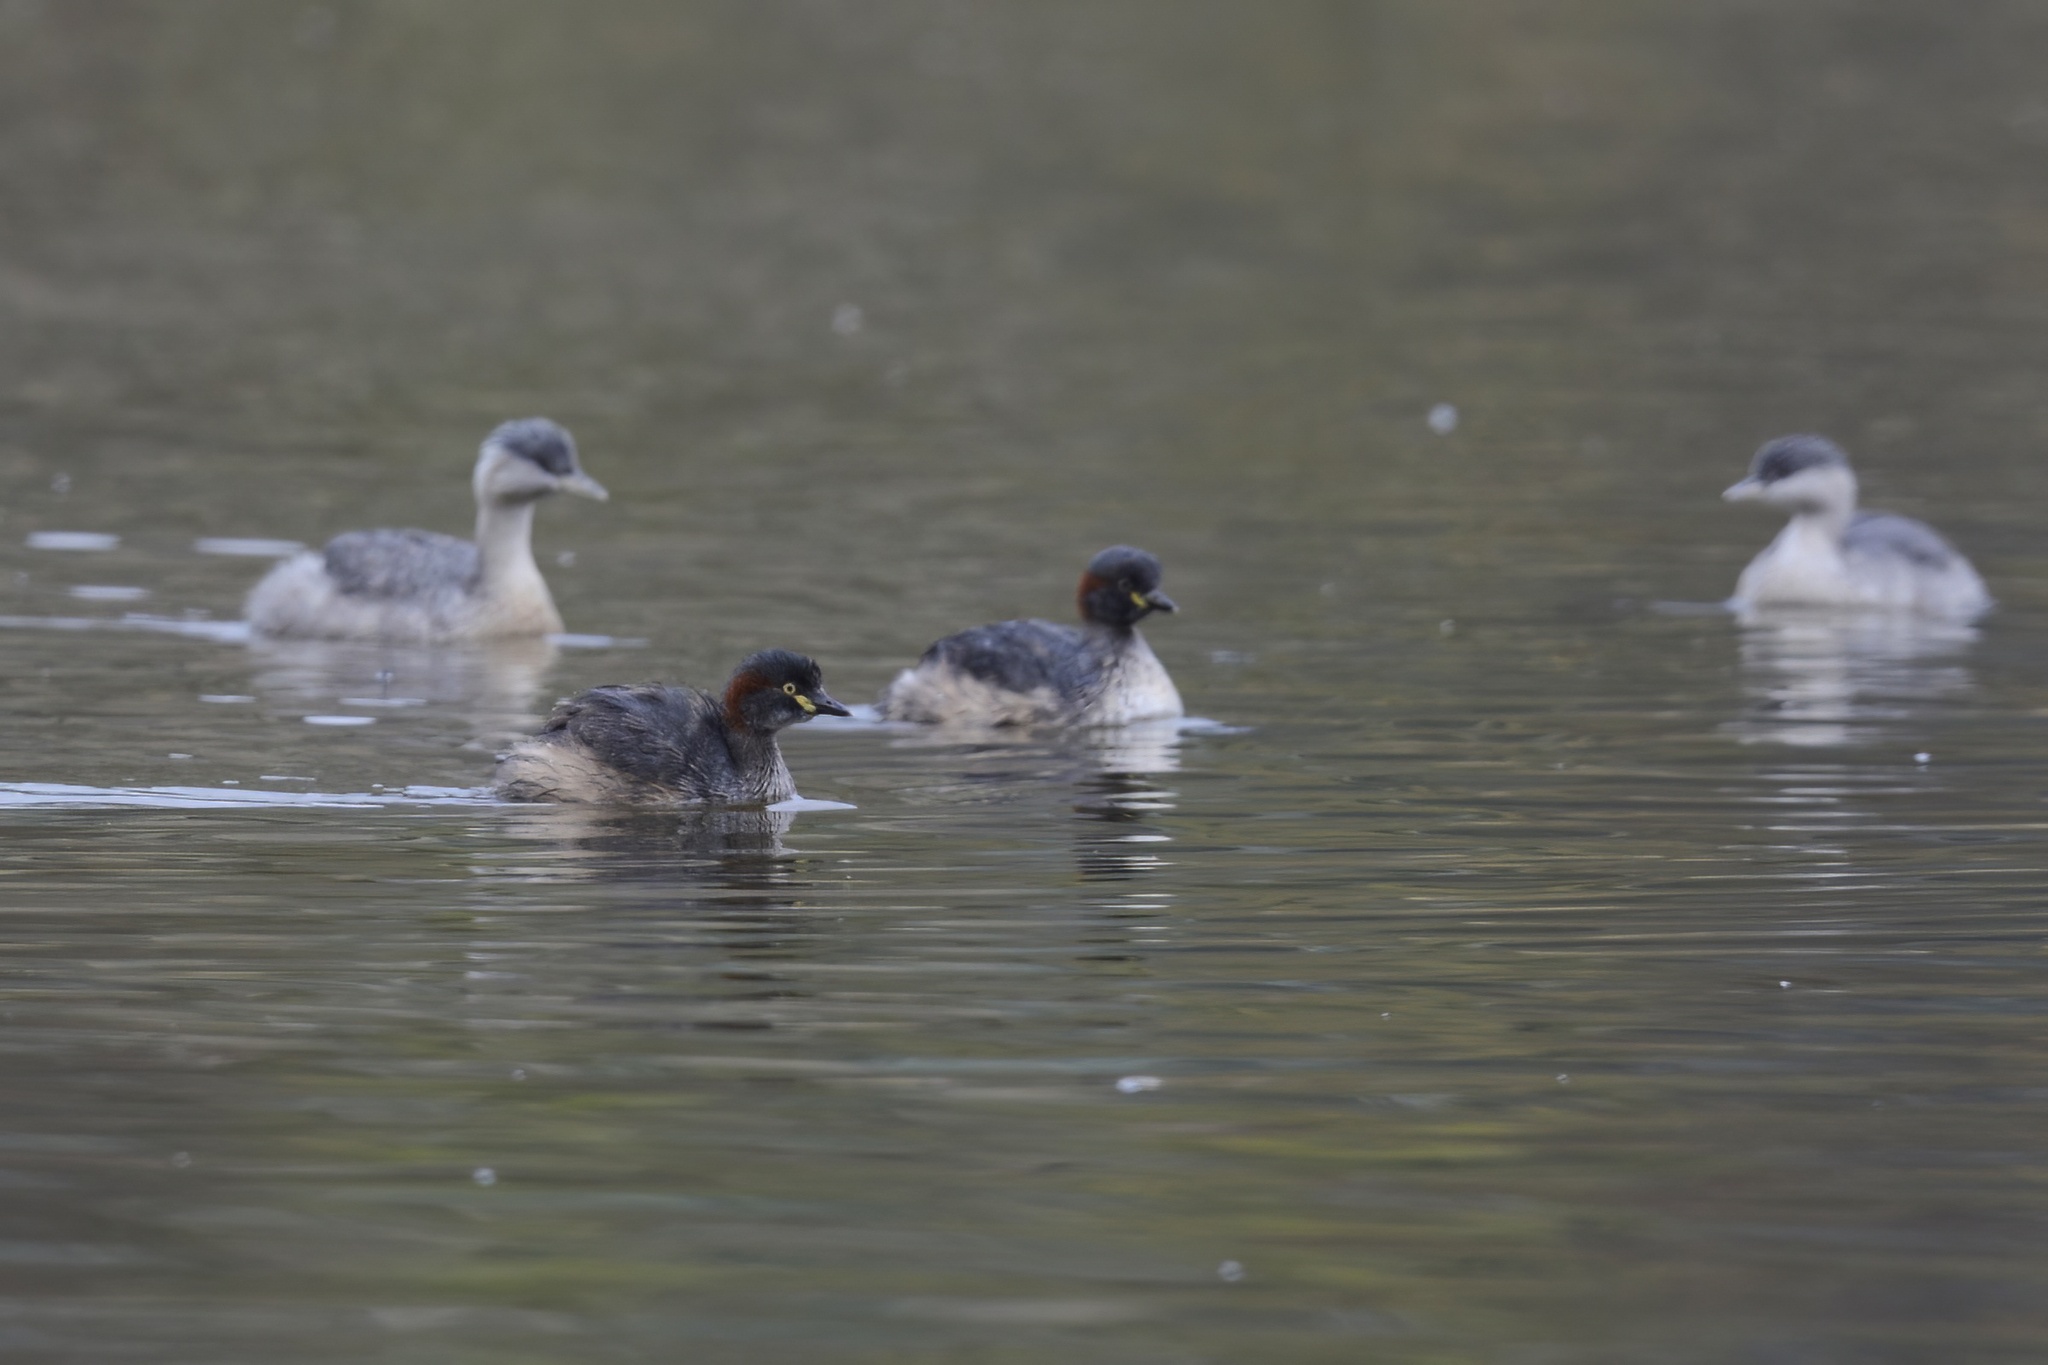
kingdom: Animalia
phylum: Chordata
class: Aves
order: Podicipediformes
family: Podicipedidae
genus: Tachybaptus
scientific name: Tachybaptus novaehollandiae
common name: Australasian grebe
